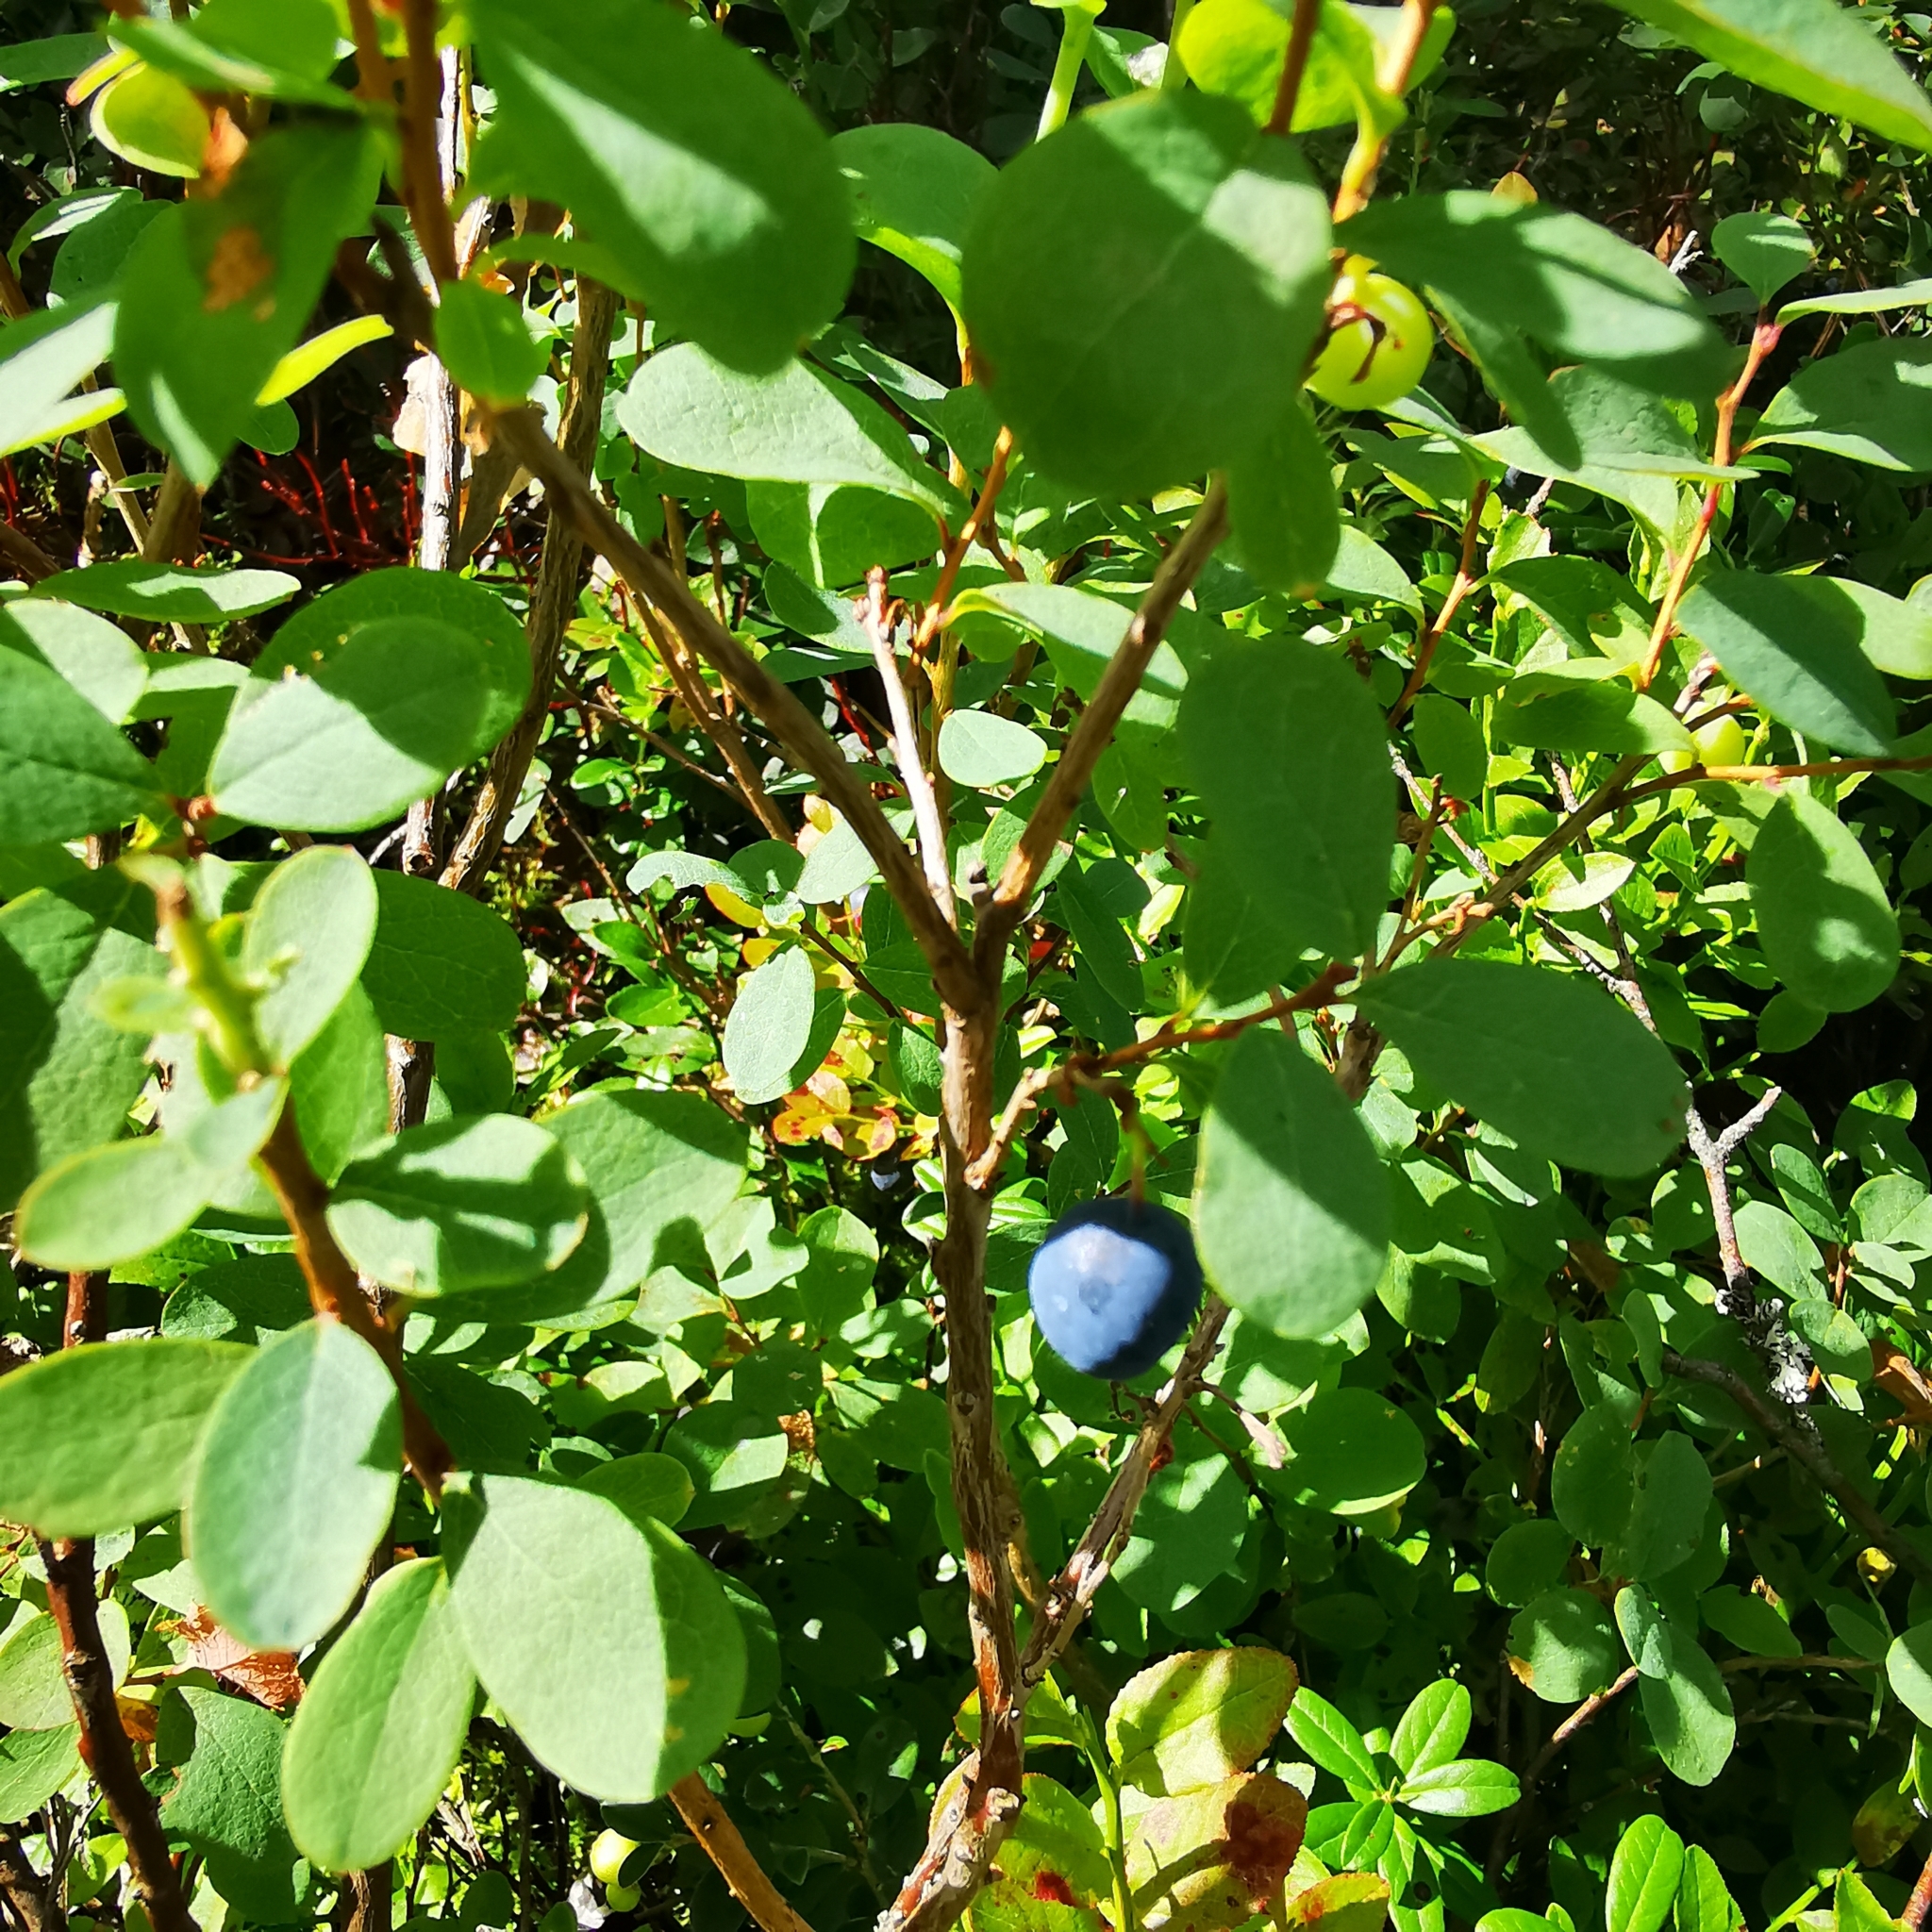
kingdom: Plantae
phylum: Tracheophyta
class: Magnoliopsida
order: Ericales
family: Ericaceae
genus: Vaccinium
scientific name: Vaccinium uliginosum
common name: Bog bilberry
